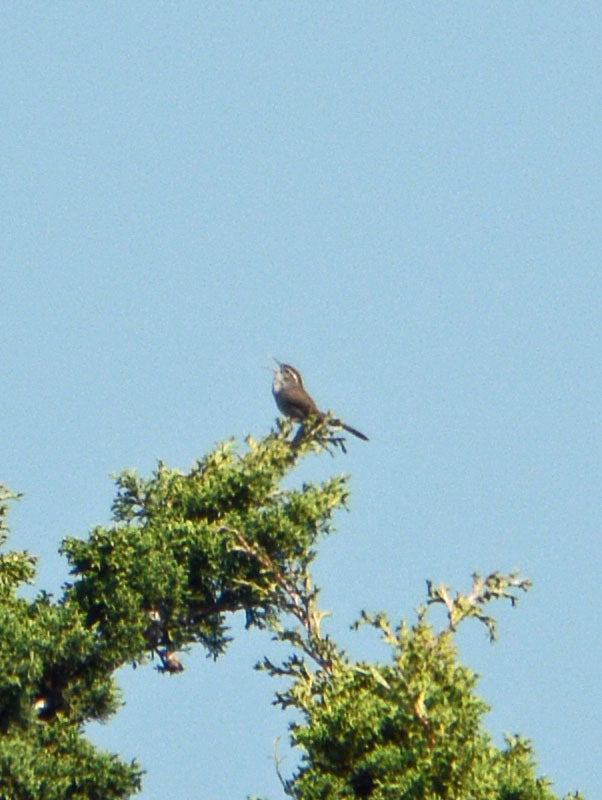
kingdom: Animalia
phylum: Chordata
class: Aves
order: Passeriformes
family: Troglodytidae
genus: Thryomanes
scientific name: Thryomanes bewickii
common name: Bewick's wren
